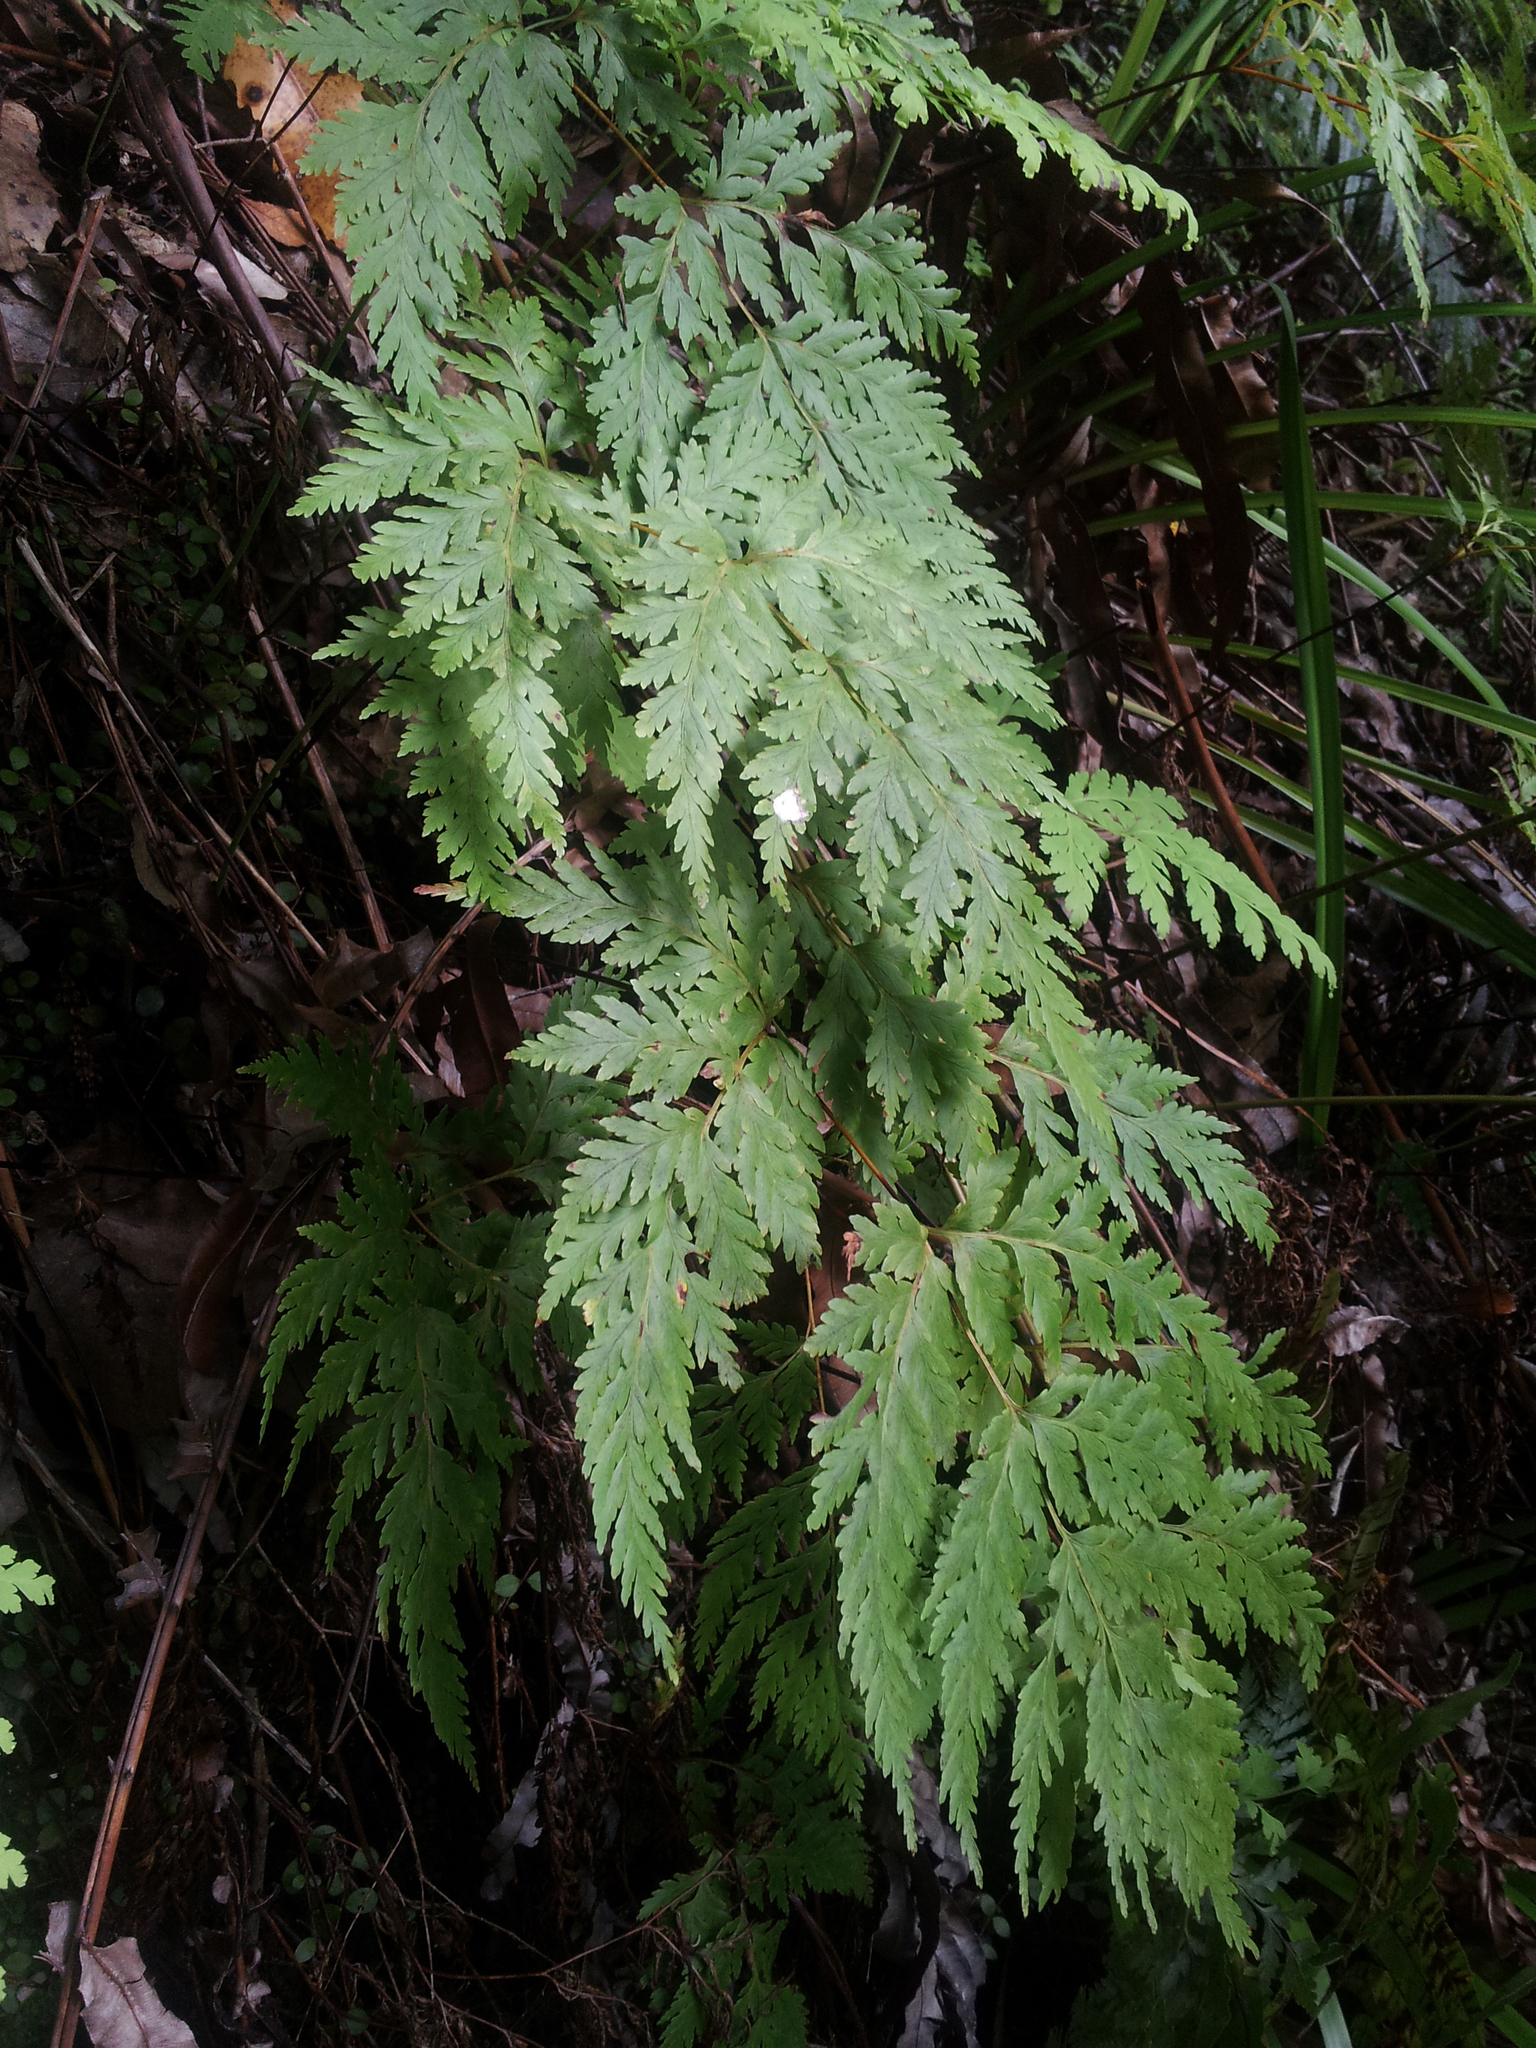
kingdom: Plantae
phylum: Tracheophyta
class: Polypodiopsida
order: Cyatheales
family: Loxsomataceae
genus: Loxsoma
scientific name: Loxsoma cunninghamii
